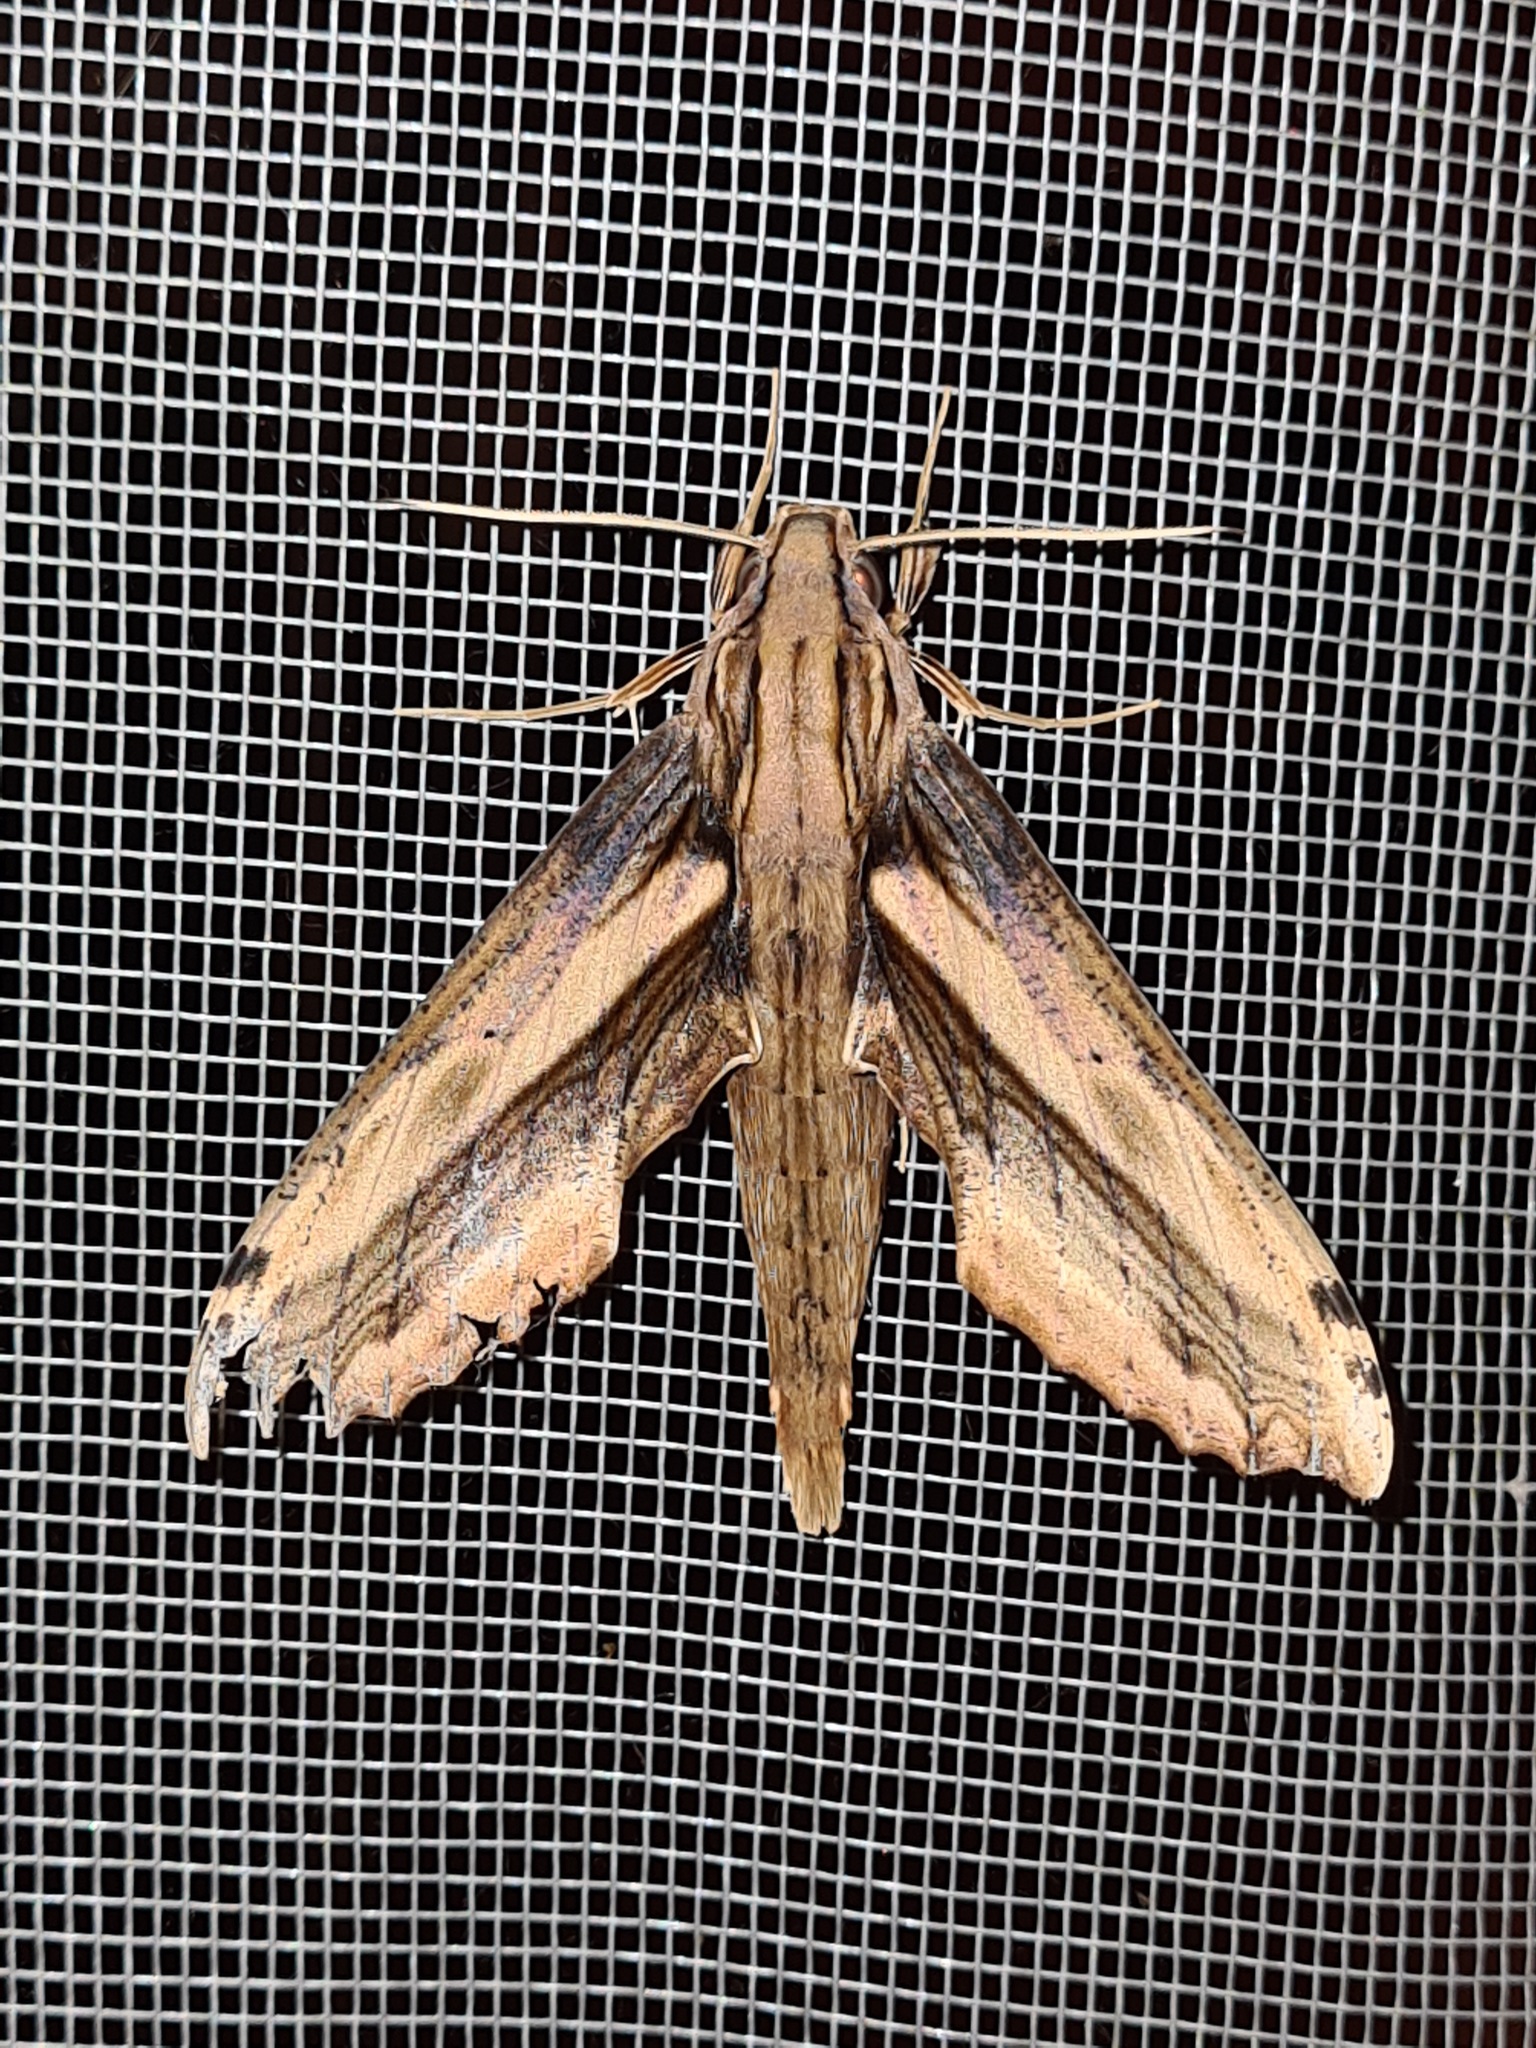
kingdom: Animalia
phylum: Arthropoda
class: Insecta
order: Lepidoptera
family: Sphingidae
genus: Xylophanes
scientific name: Xylophanes ceratomioides
